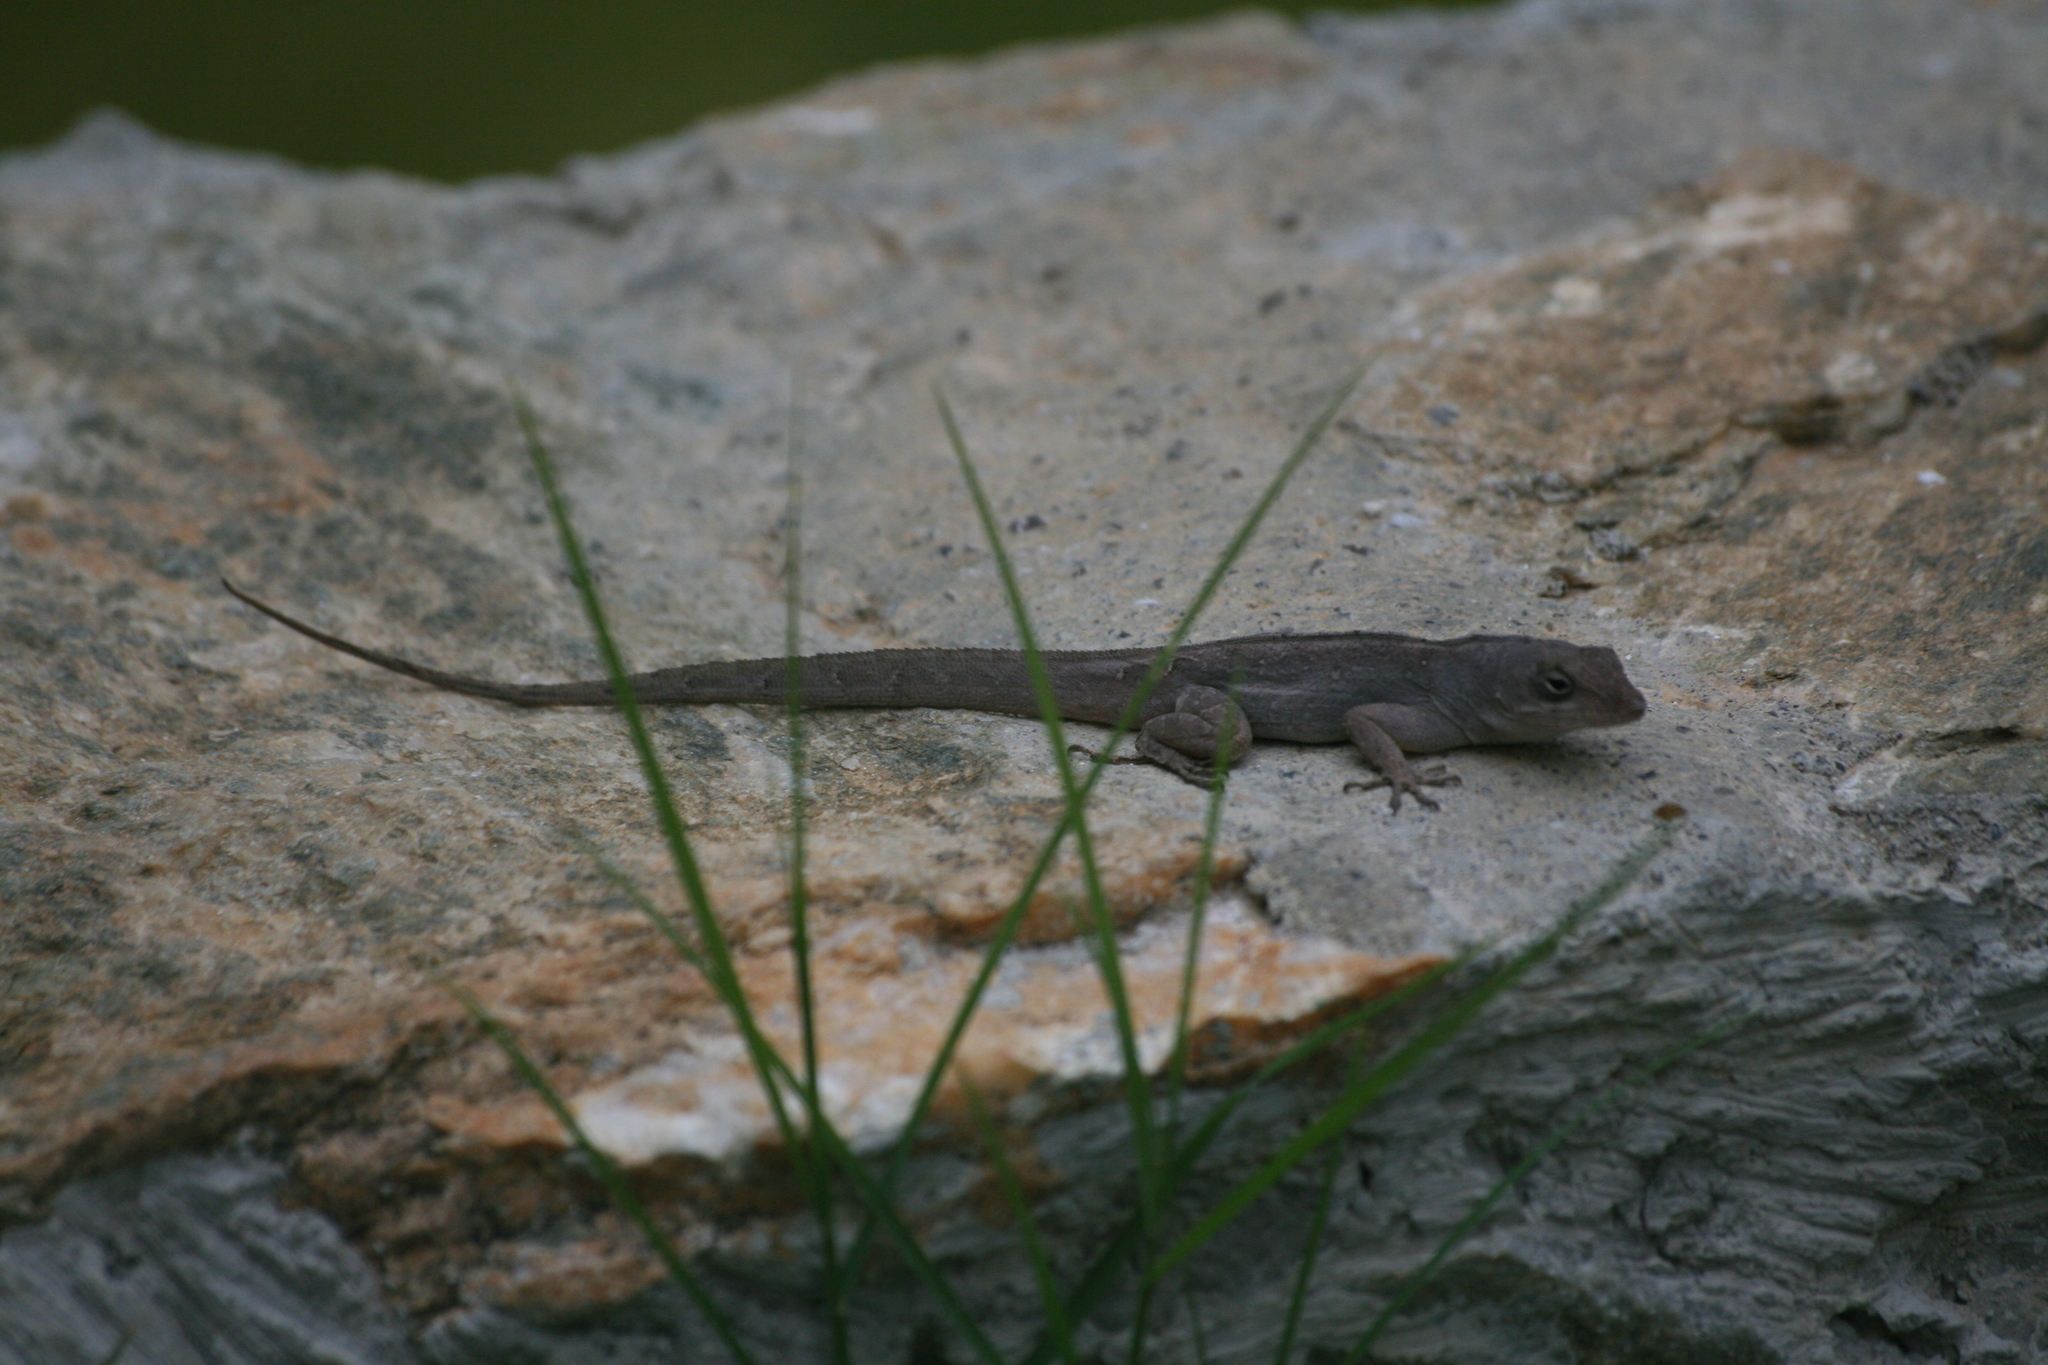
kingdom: Animalia
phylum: Chordata
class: Squamata
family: Dactyloidae
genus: Anolis
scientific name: Anolis sagrei
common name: Brown anole
